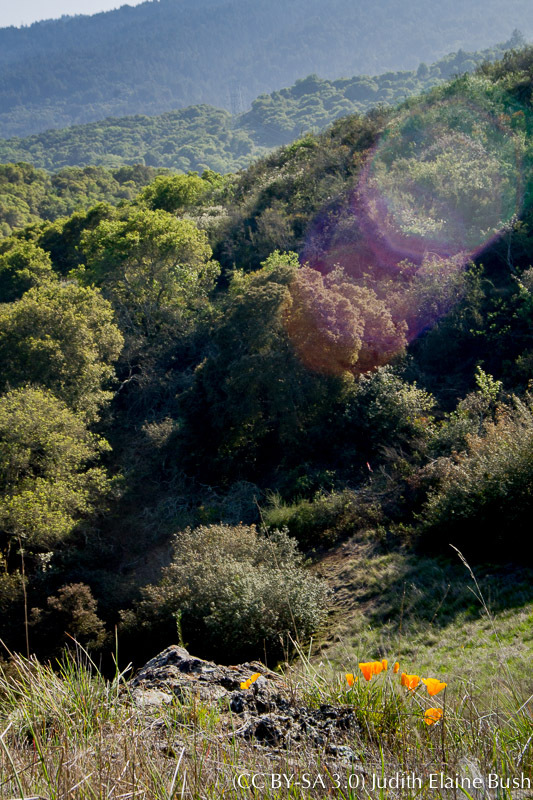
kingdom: Plantae
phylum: Tracheophyta
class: Magnoliopsida
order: Ranunculales
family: Papaveraceae
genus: Eschscholzia
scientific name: Eschscholzia californica
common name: California poppy
